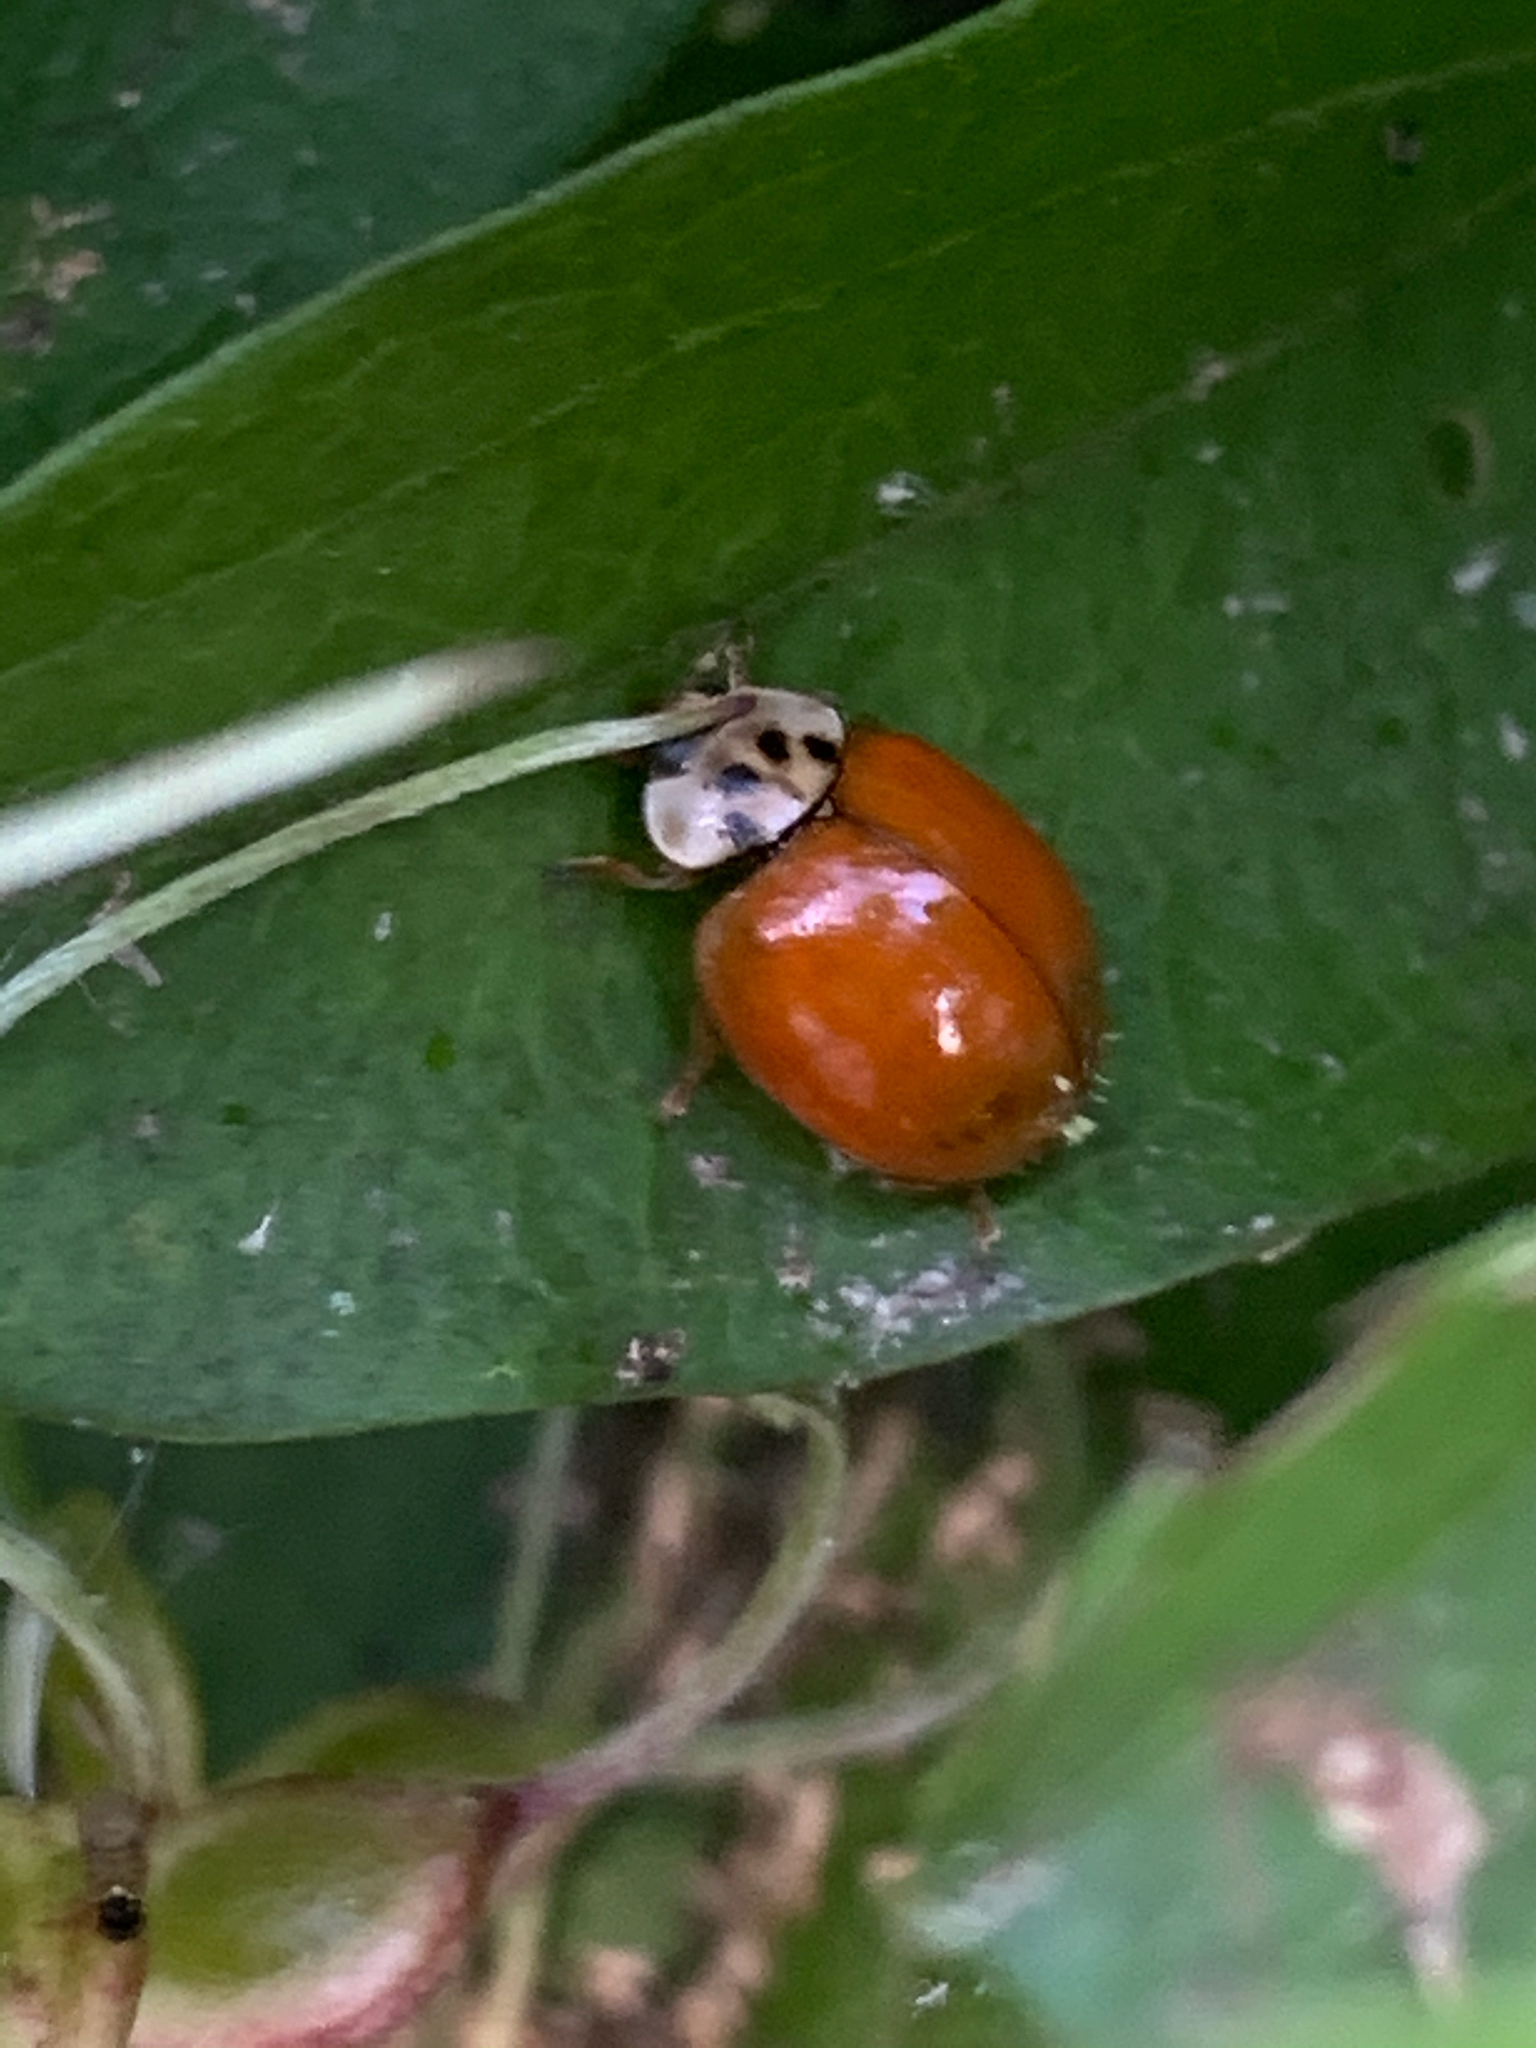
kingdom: Animalia
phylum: Arthropoda
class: Insecta
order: Coleoptera
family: Coccinellidae
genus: Harmonia
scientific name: Harmonia axyridis
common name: Harlequin ladybird
